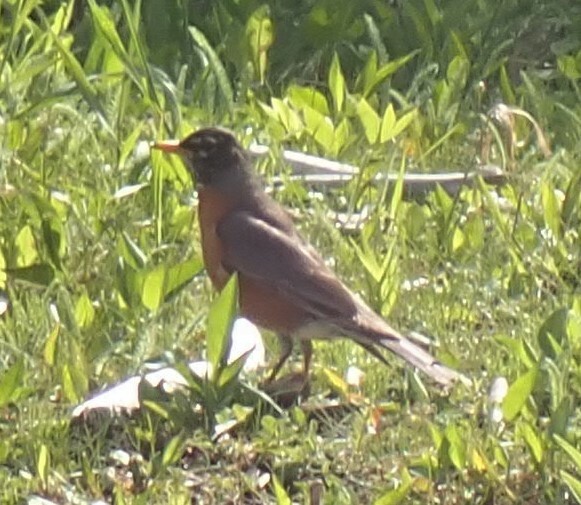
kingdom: Animalia
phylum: Chordata
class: Aves
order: Passeriformes
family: Turdidae
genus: Turdus
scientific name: Turdus migratorius
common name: American robin
